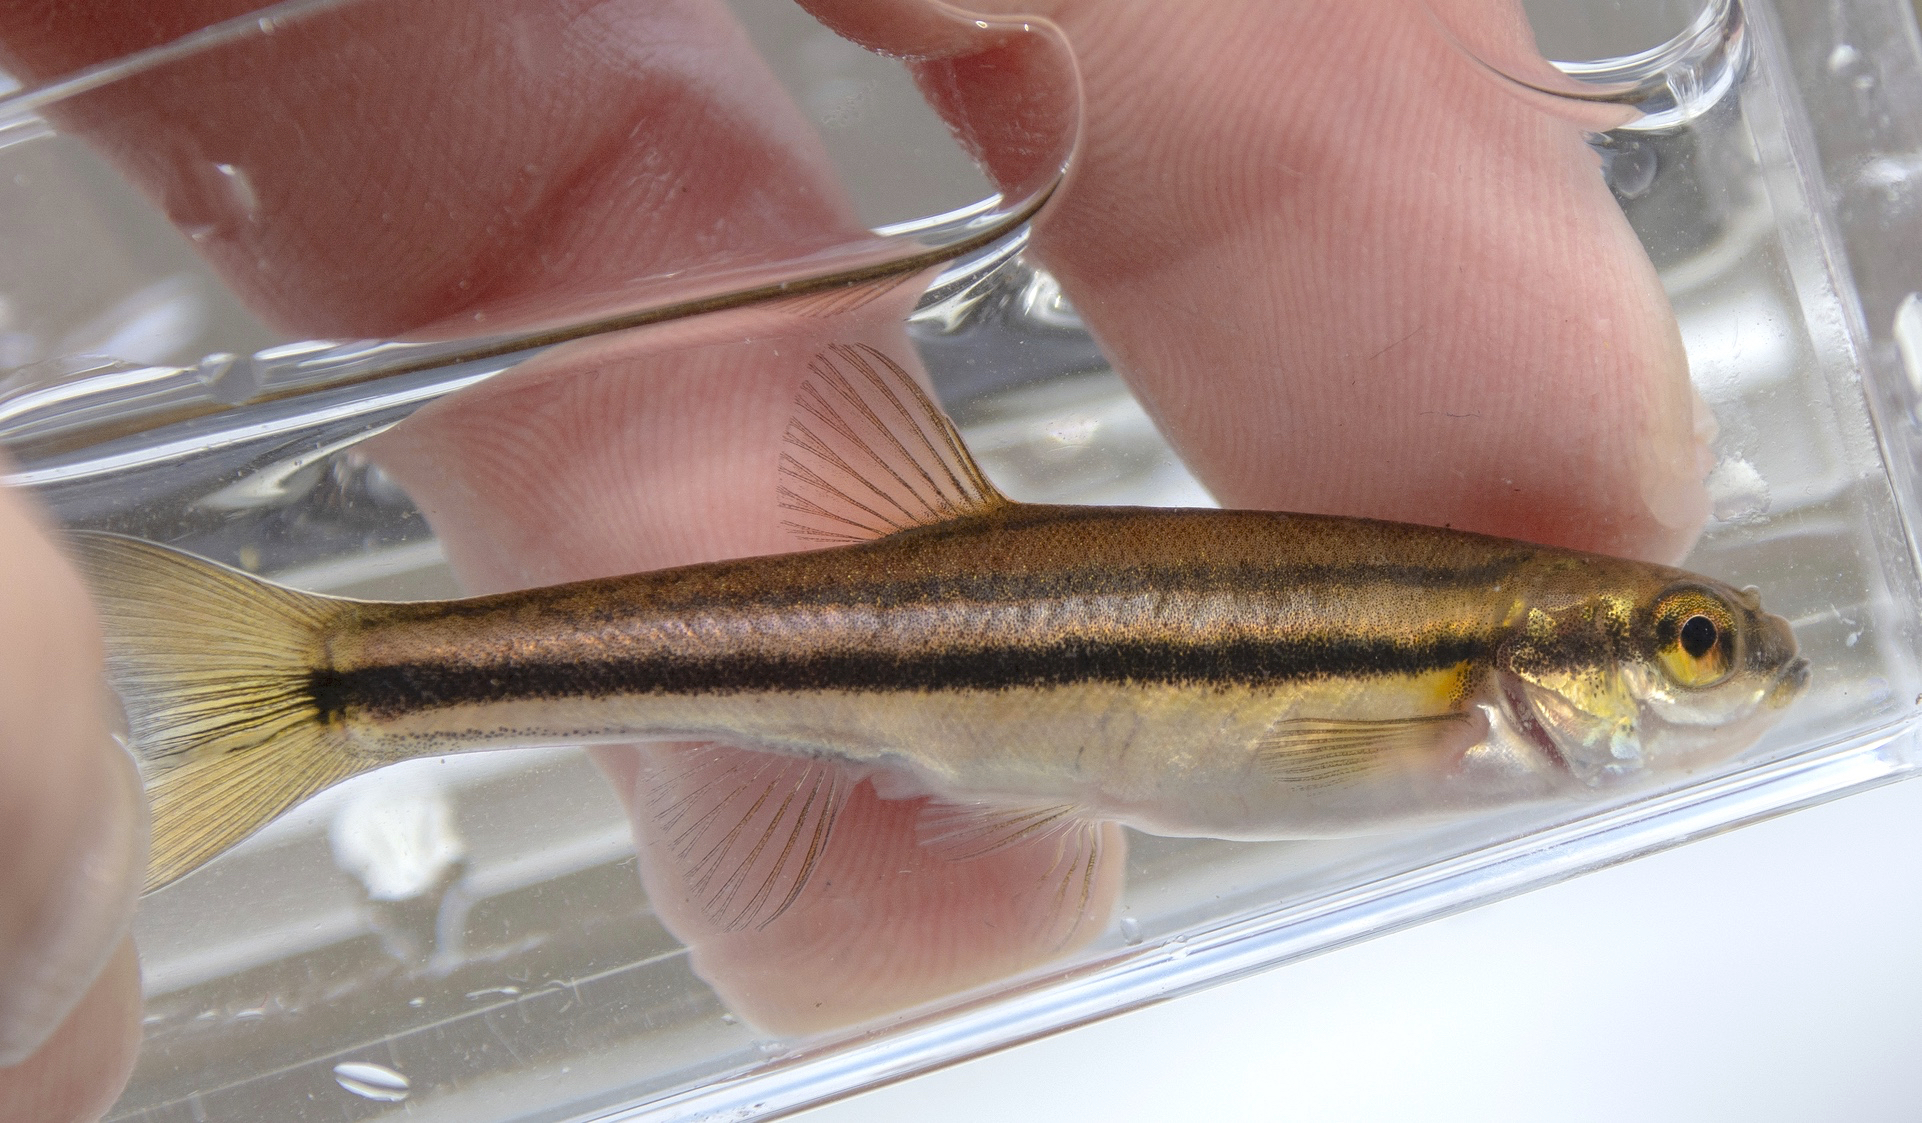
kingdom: Animalia
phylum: Chordata
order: Cypriniformes
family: Cyprinidae
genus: Chrosomus
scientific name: Chrosomus eos
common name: Northern redbelly dace
